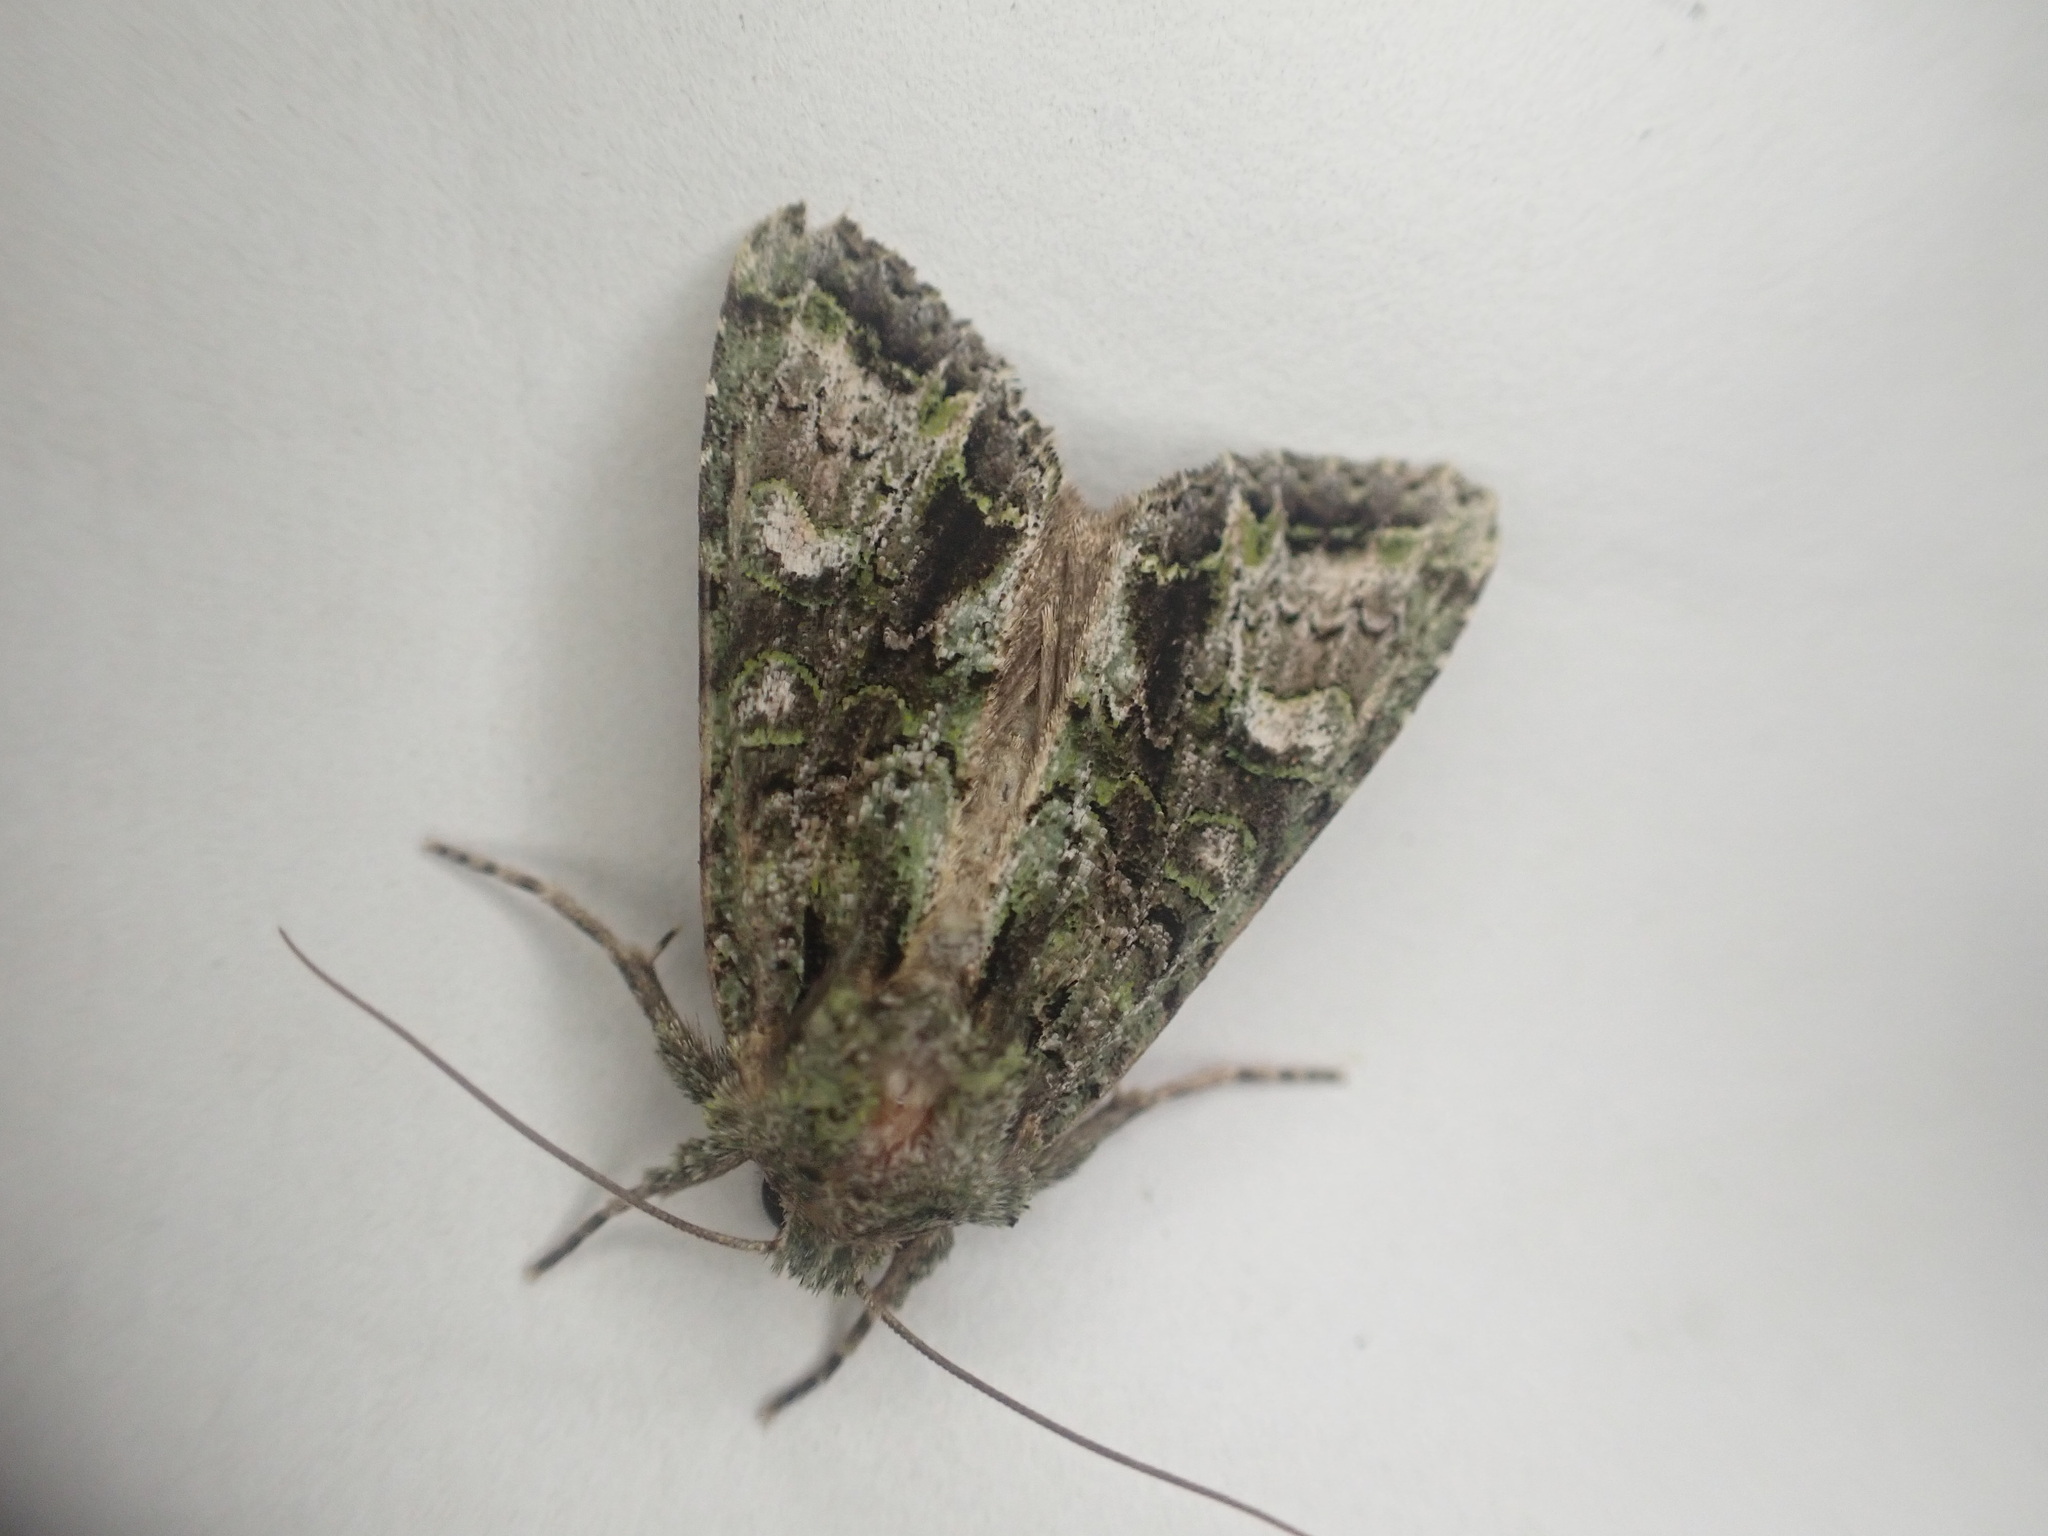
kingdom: Animalia
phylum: Arthropoda
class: Insecta
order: Lepidoptera
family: Noctuidae
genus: Ichneutica
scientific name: Ichneutica
